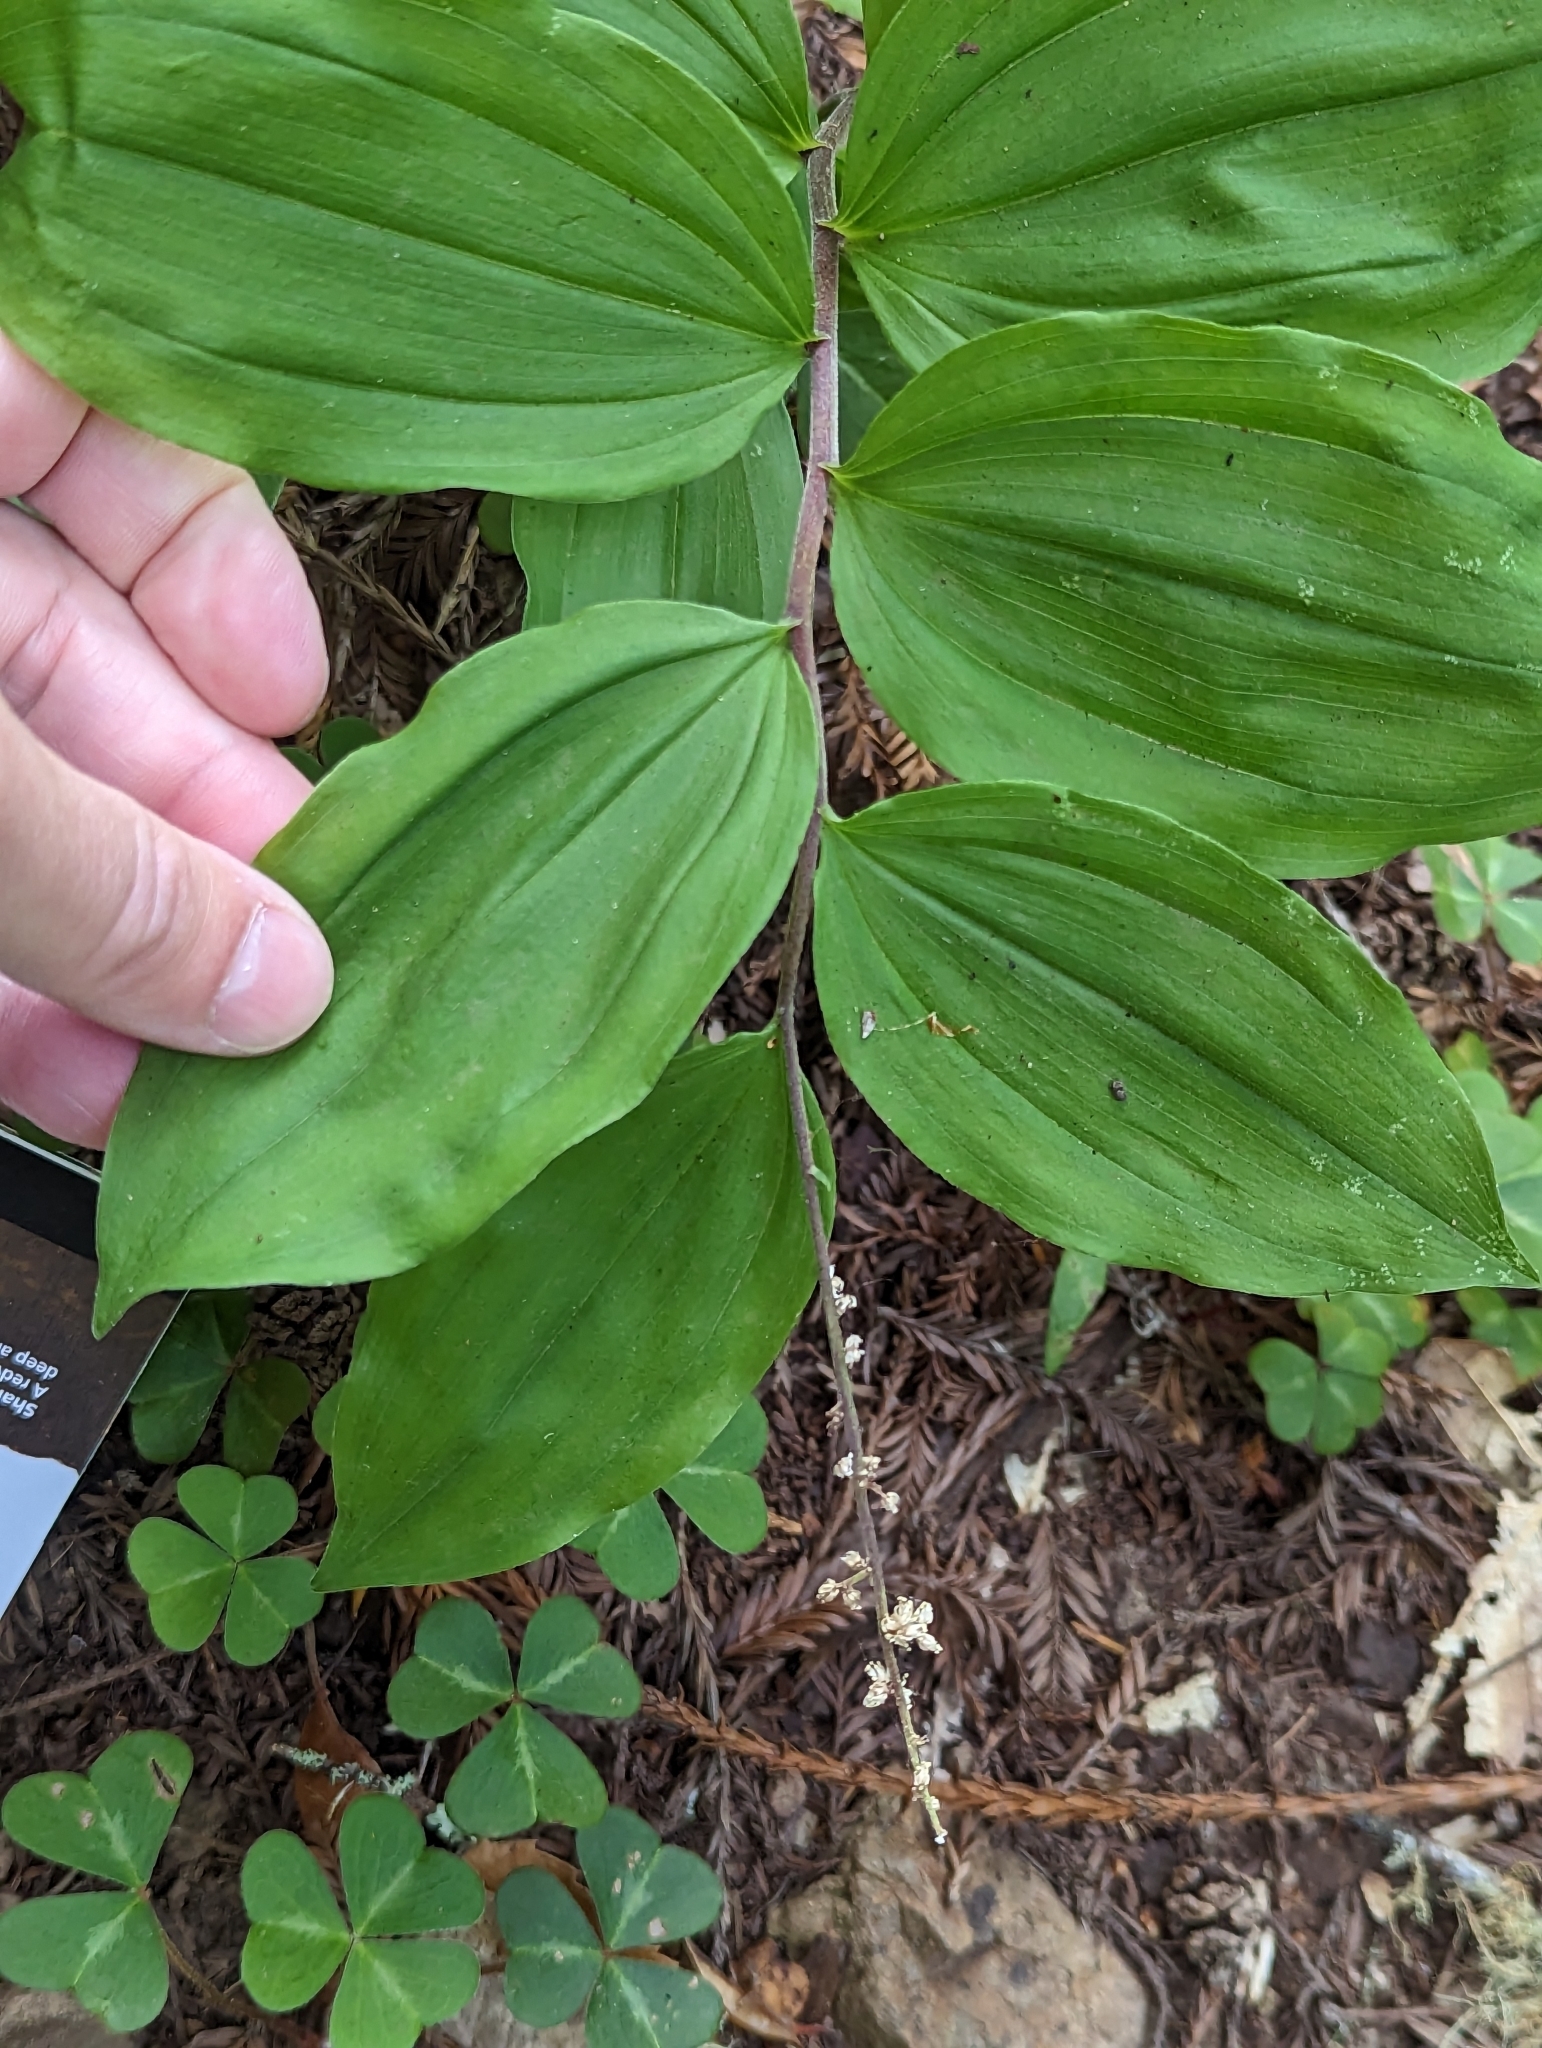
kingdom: Plantae
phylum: Tracheophyta
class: Liliopsida
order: Asparagales
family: Asparagaceae
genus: Maianthemum
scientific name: Maianthemum racemosum
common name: False spikenard
